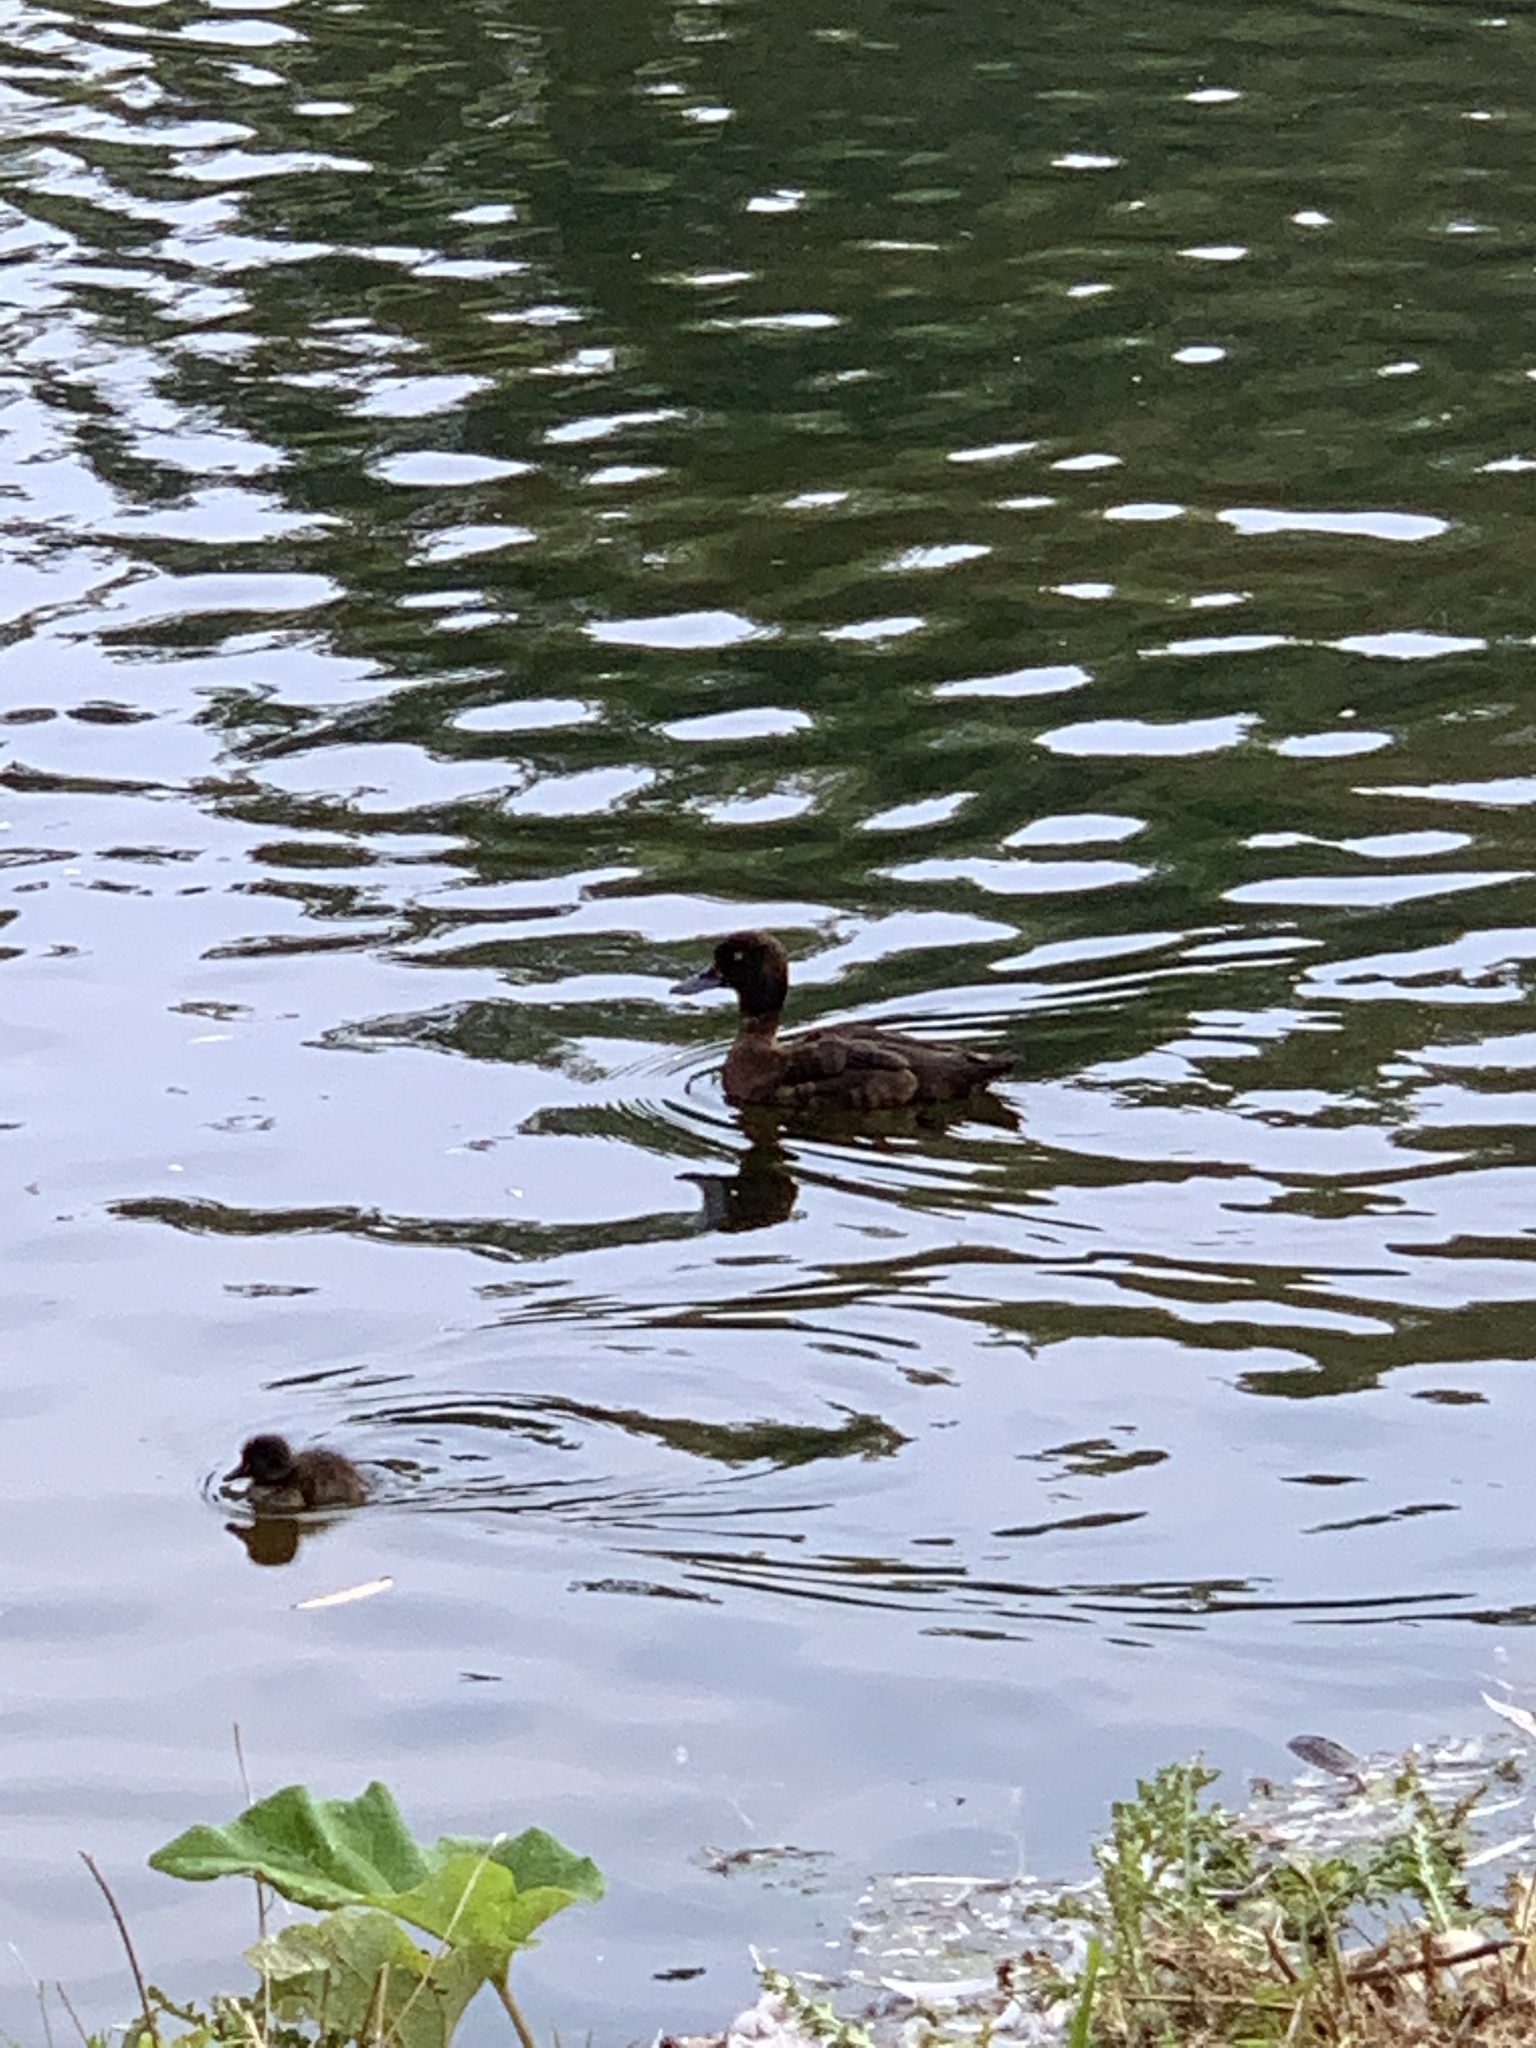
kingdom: Animalia
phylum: Chordata
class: Aves
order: Anseriformes
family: Anatidae
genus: Aythya
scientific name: Aythya fuligula
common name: Tufted duck
